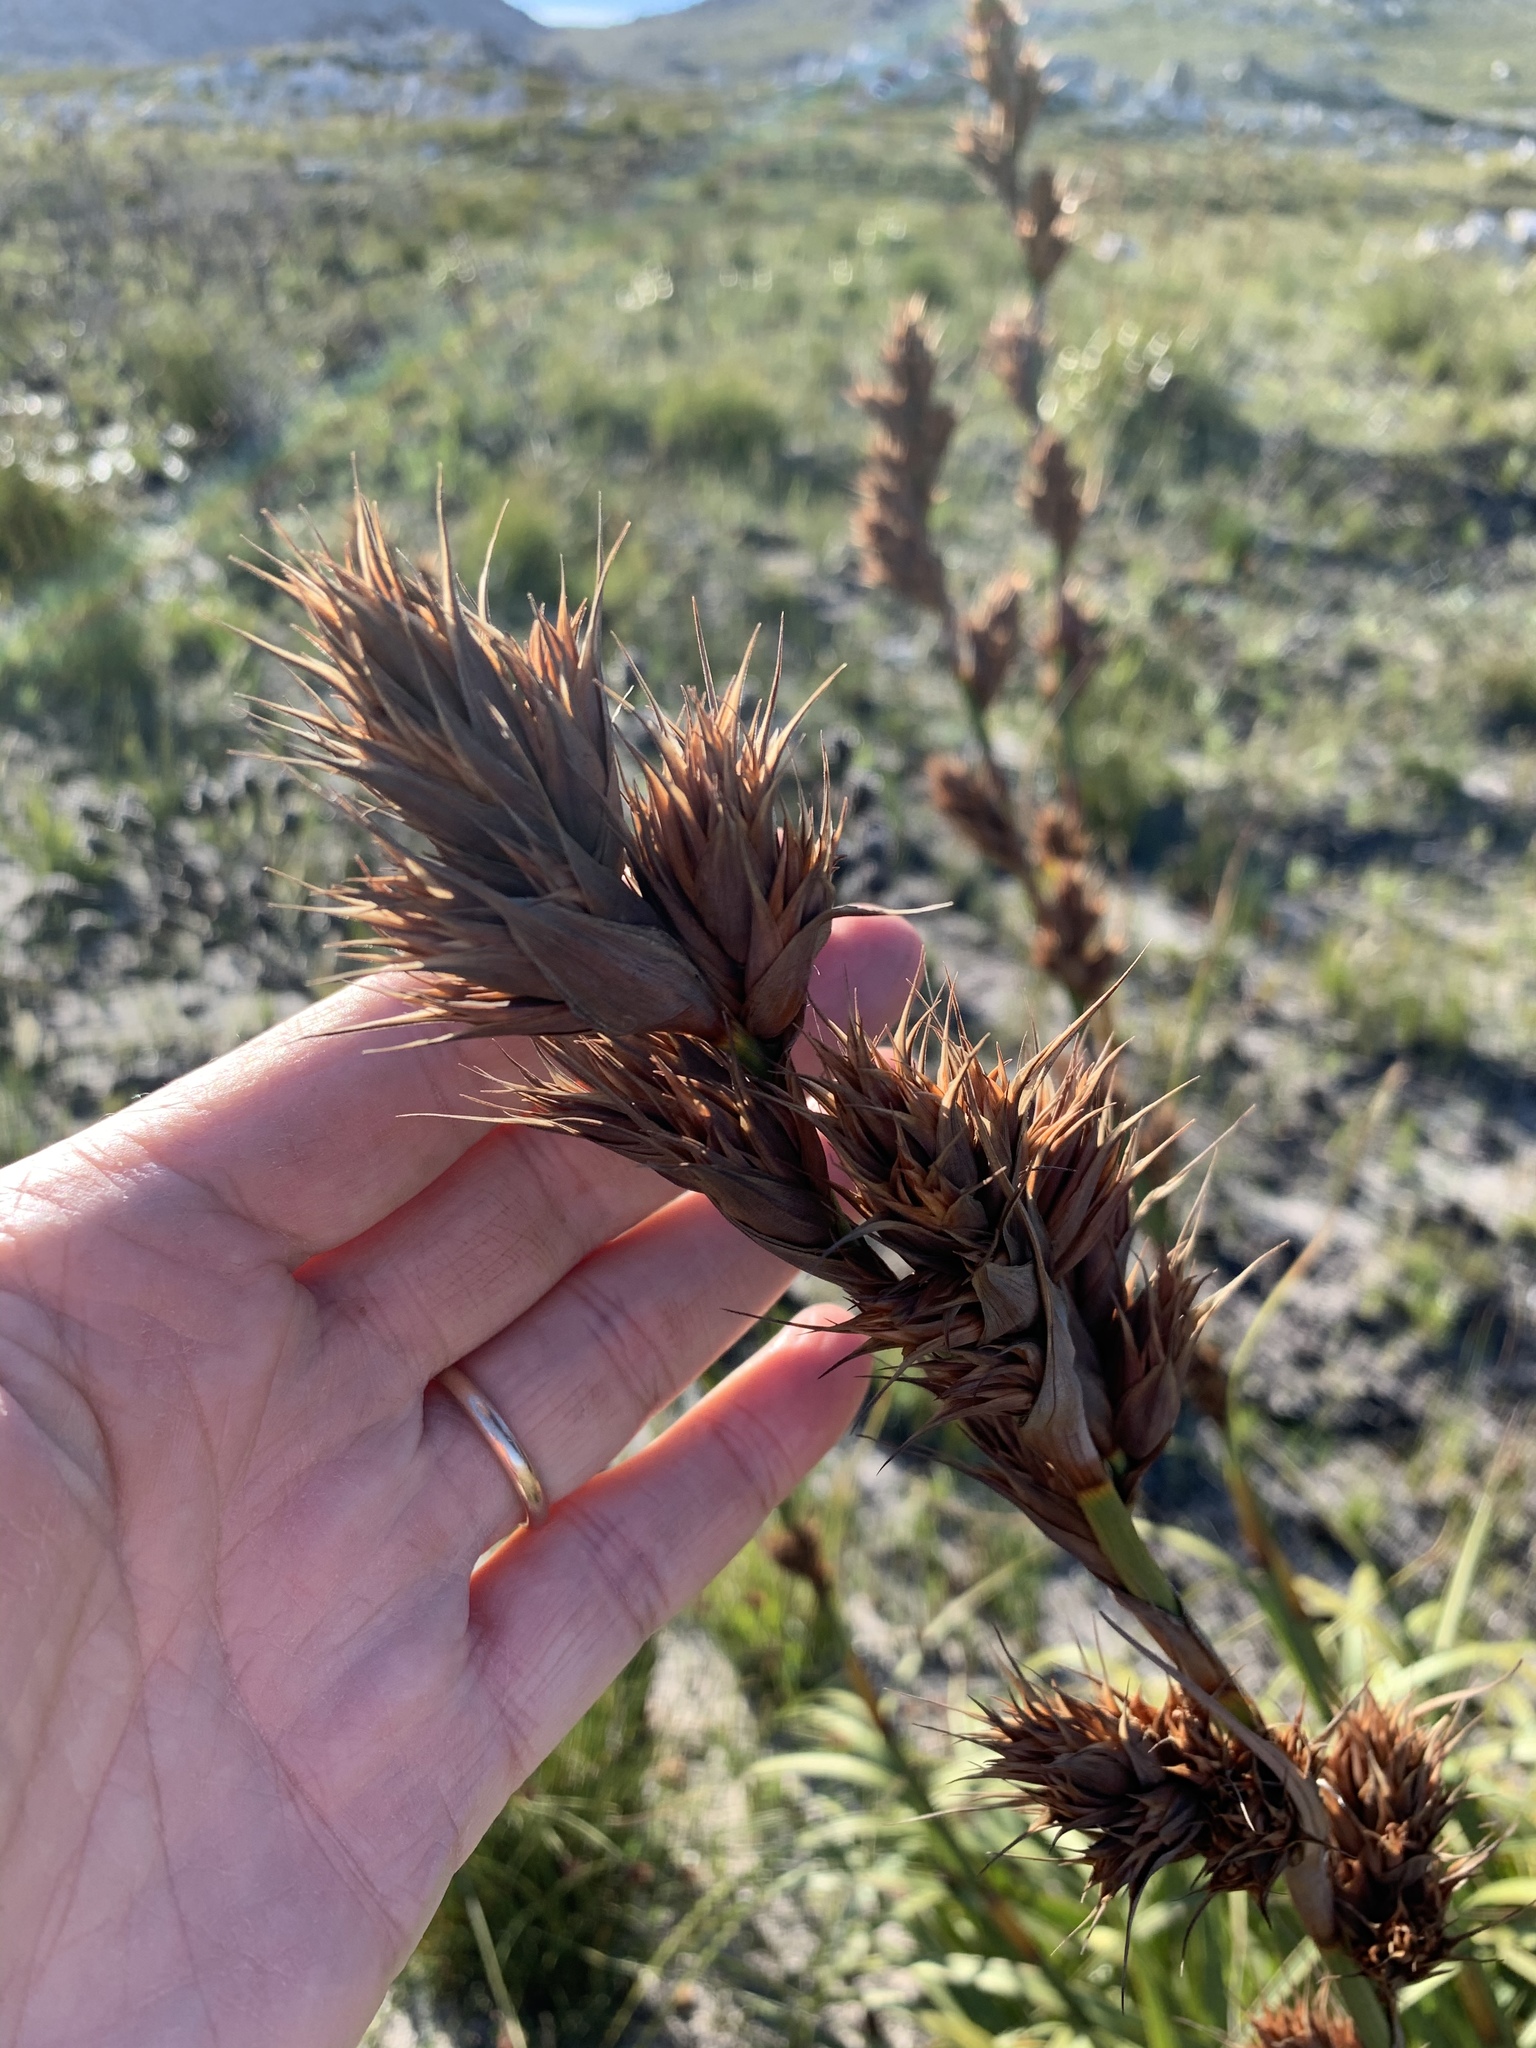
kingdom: Plantae
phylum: Tracheophyta
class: Liliopsida
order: Poales
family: Cyperaceae
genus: Tetraria
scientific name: Tetraria thermalis
